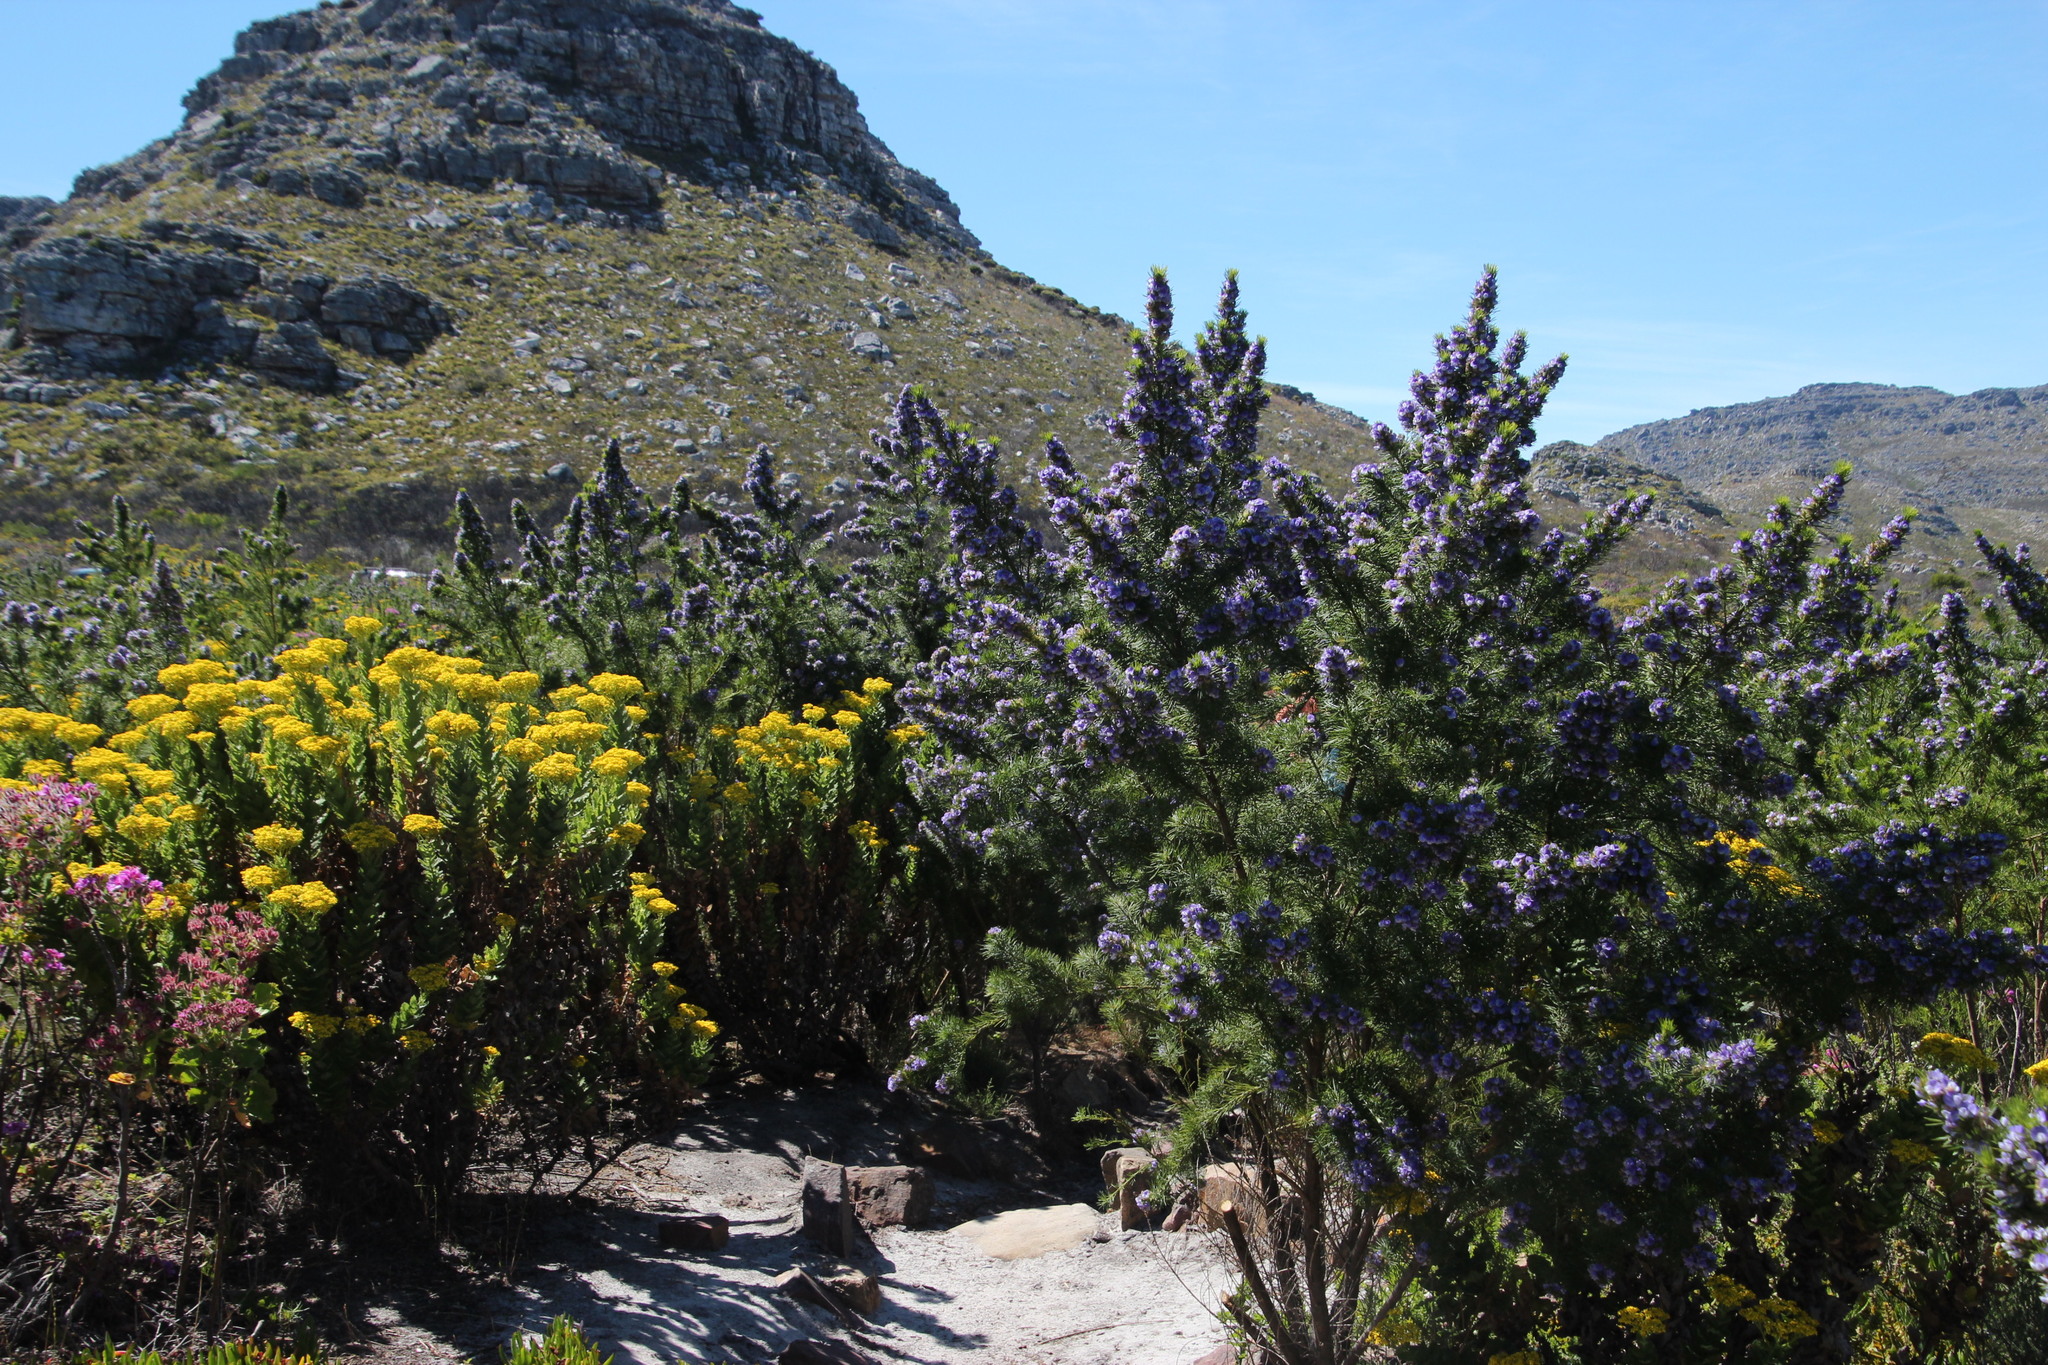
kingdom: Plantae
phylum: Tracheophyta
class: Magnoliopsida
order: Fabales
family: Fabaceae
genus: Psoralea
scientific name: Psoralea pinnata
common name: African scurfpea
